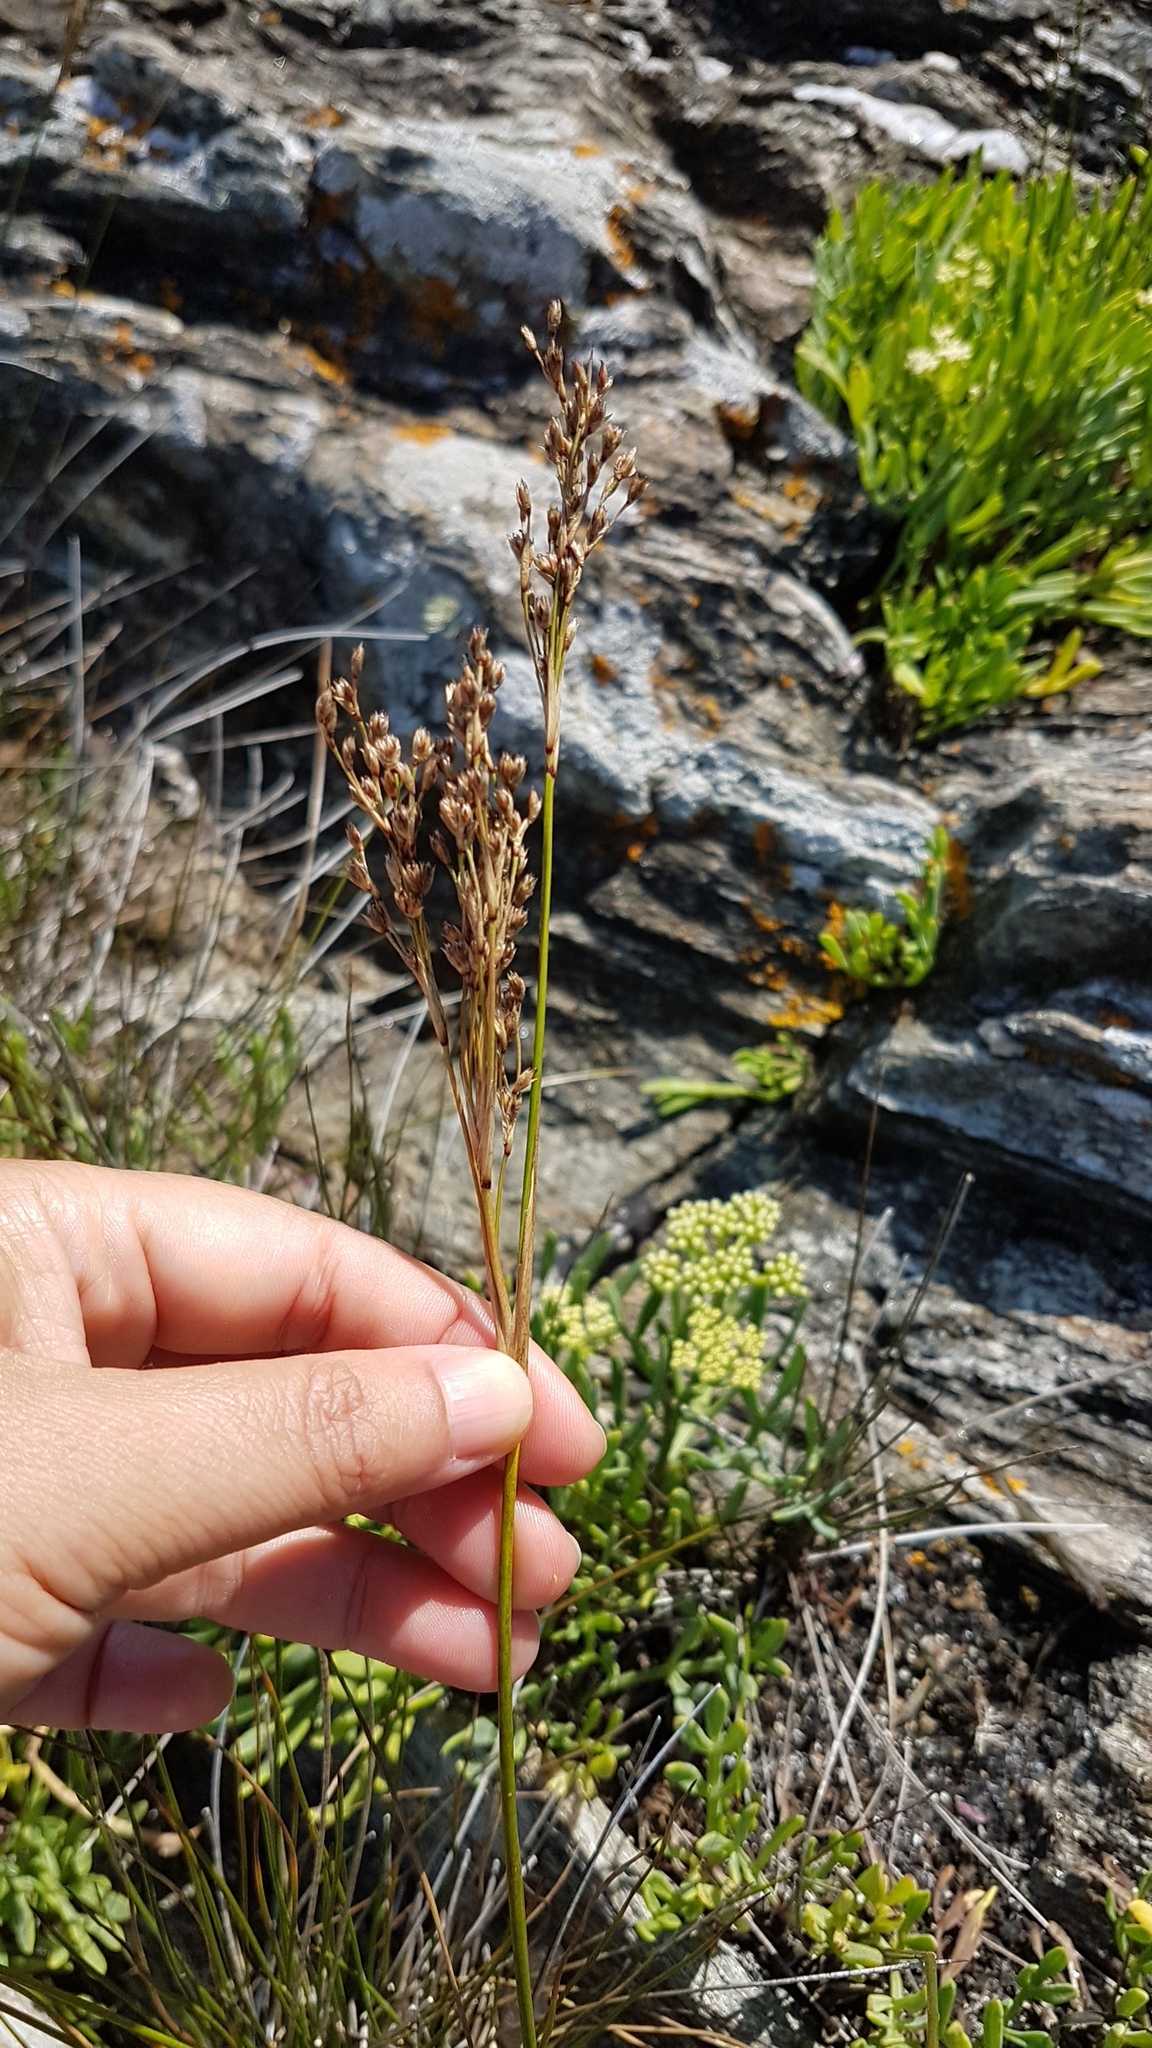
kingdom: Plantae
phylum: Tracheophyta
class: Liliopsida
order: Poales
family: Juncaceae
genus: Juncus
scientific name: Juncus maritimus
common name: Sea rush
